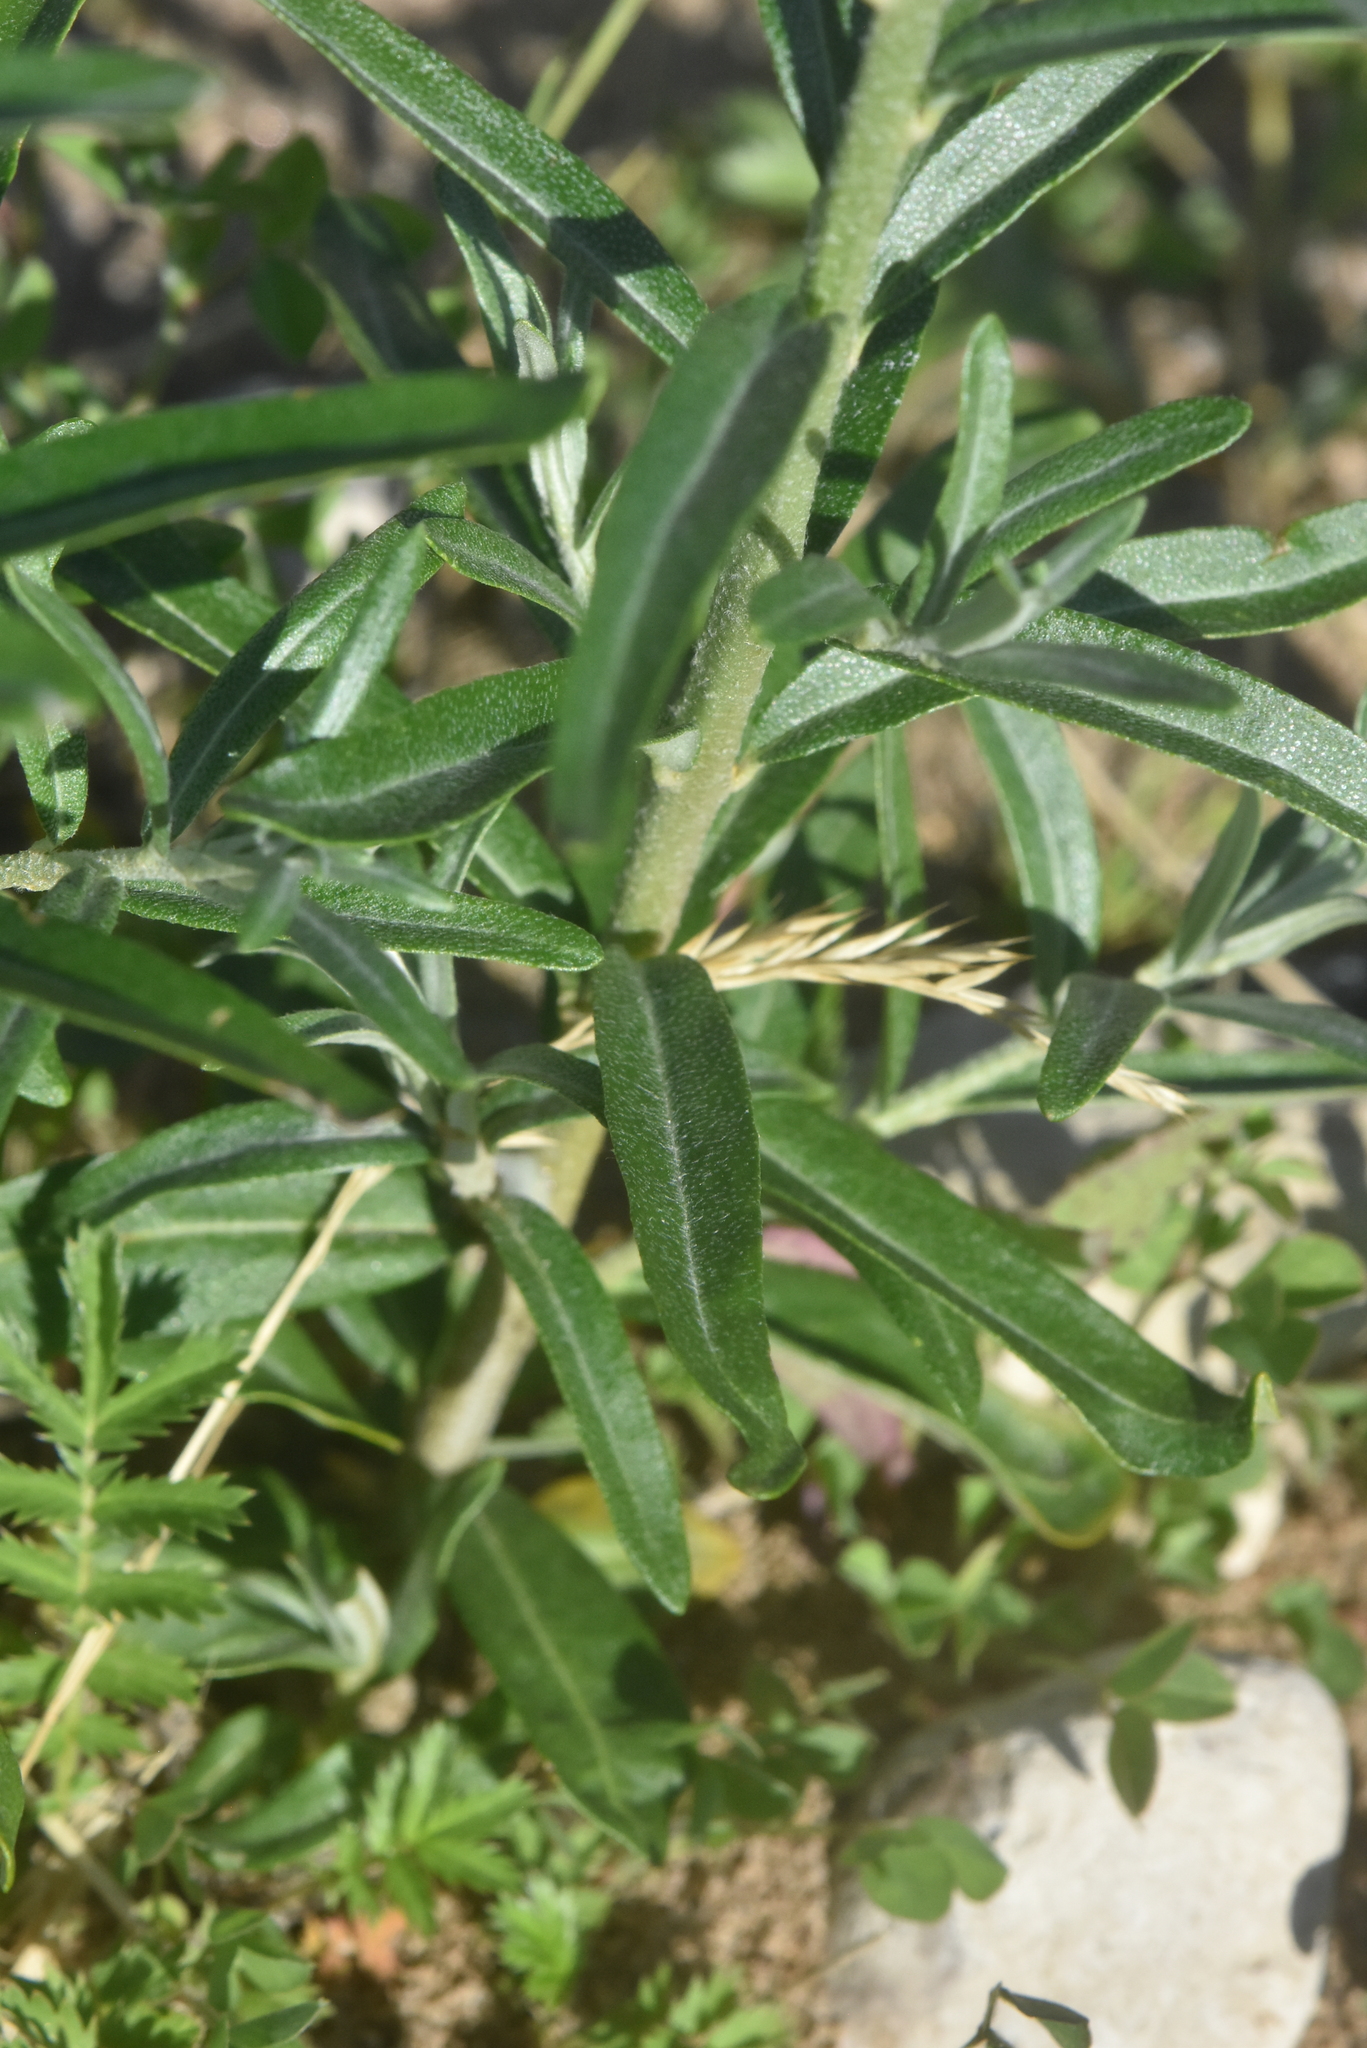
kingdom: Plantae
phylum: Tracheophyta
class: Magnoliopsida
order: Rosales
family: Elaeagnaceae
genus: Hippophae
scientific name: Hippophae rhamnoides
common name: Sea-buckthorn
